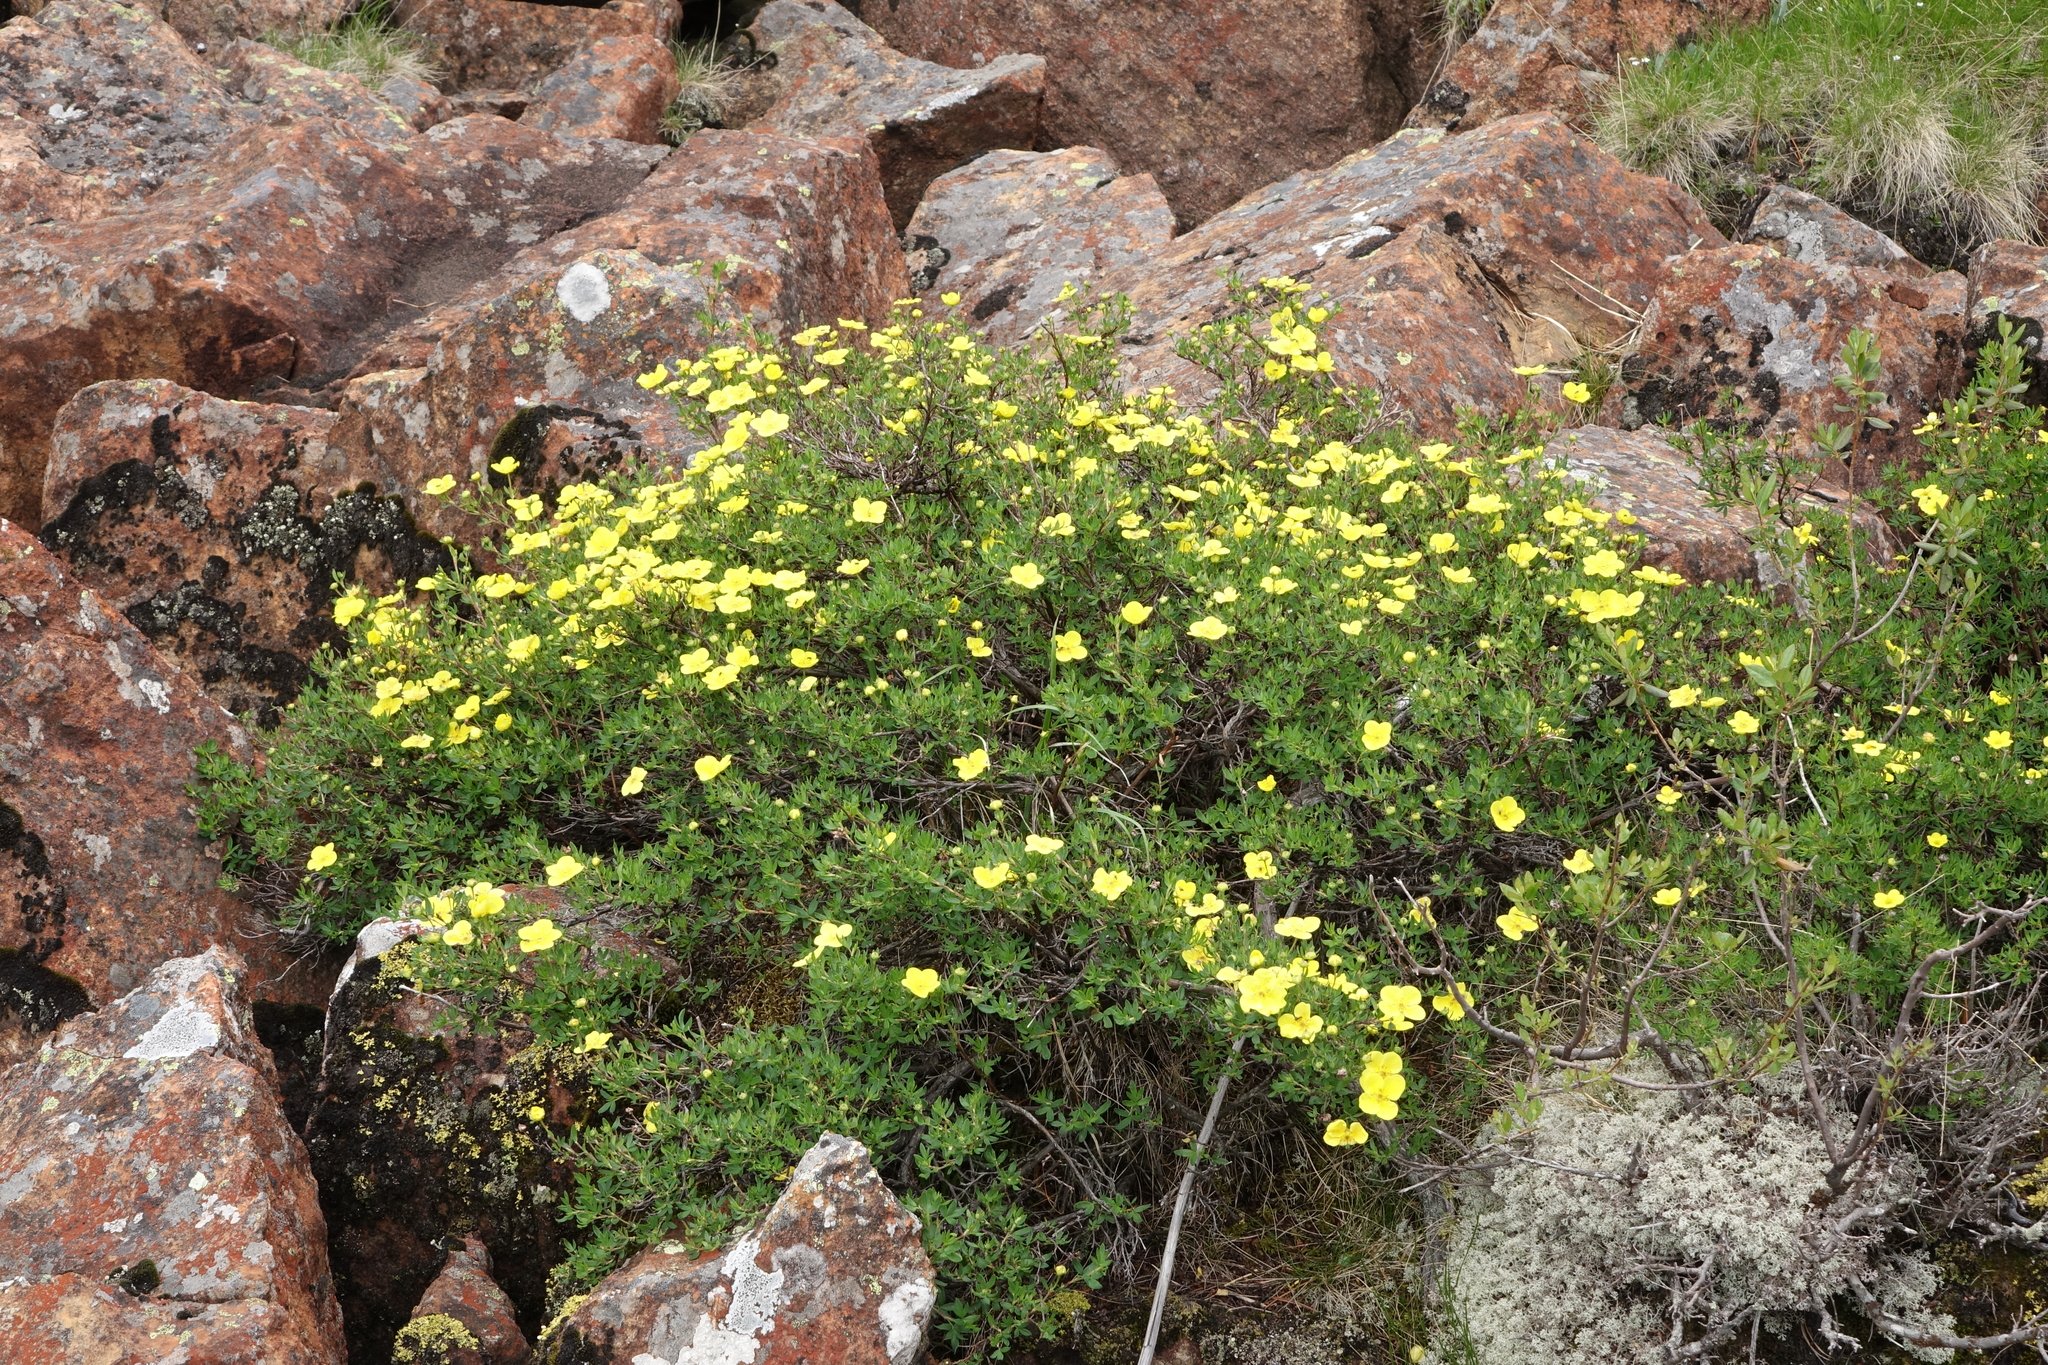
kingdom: Plantae
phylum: Tracheophyta
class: Magnoliopsida
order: Rosales
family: Rosaceae
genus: Dasiphora
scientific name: Dasiphora fruticosa
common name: Shrubby cinquefoil
